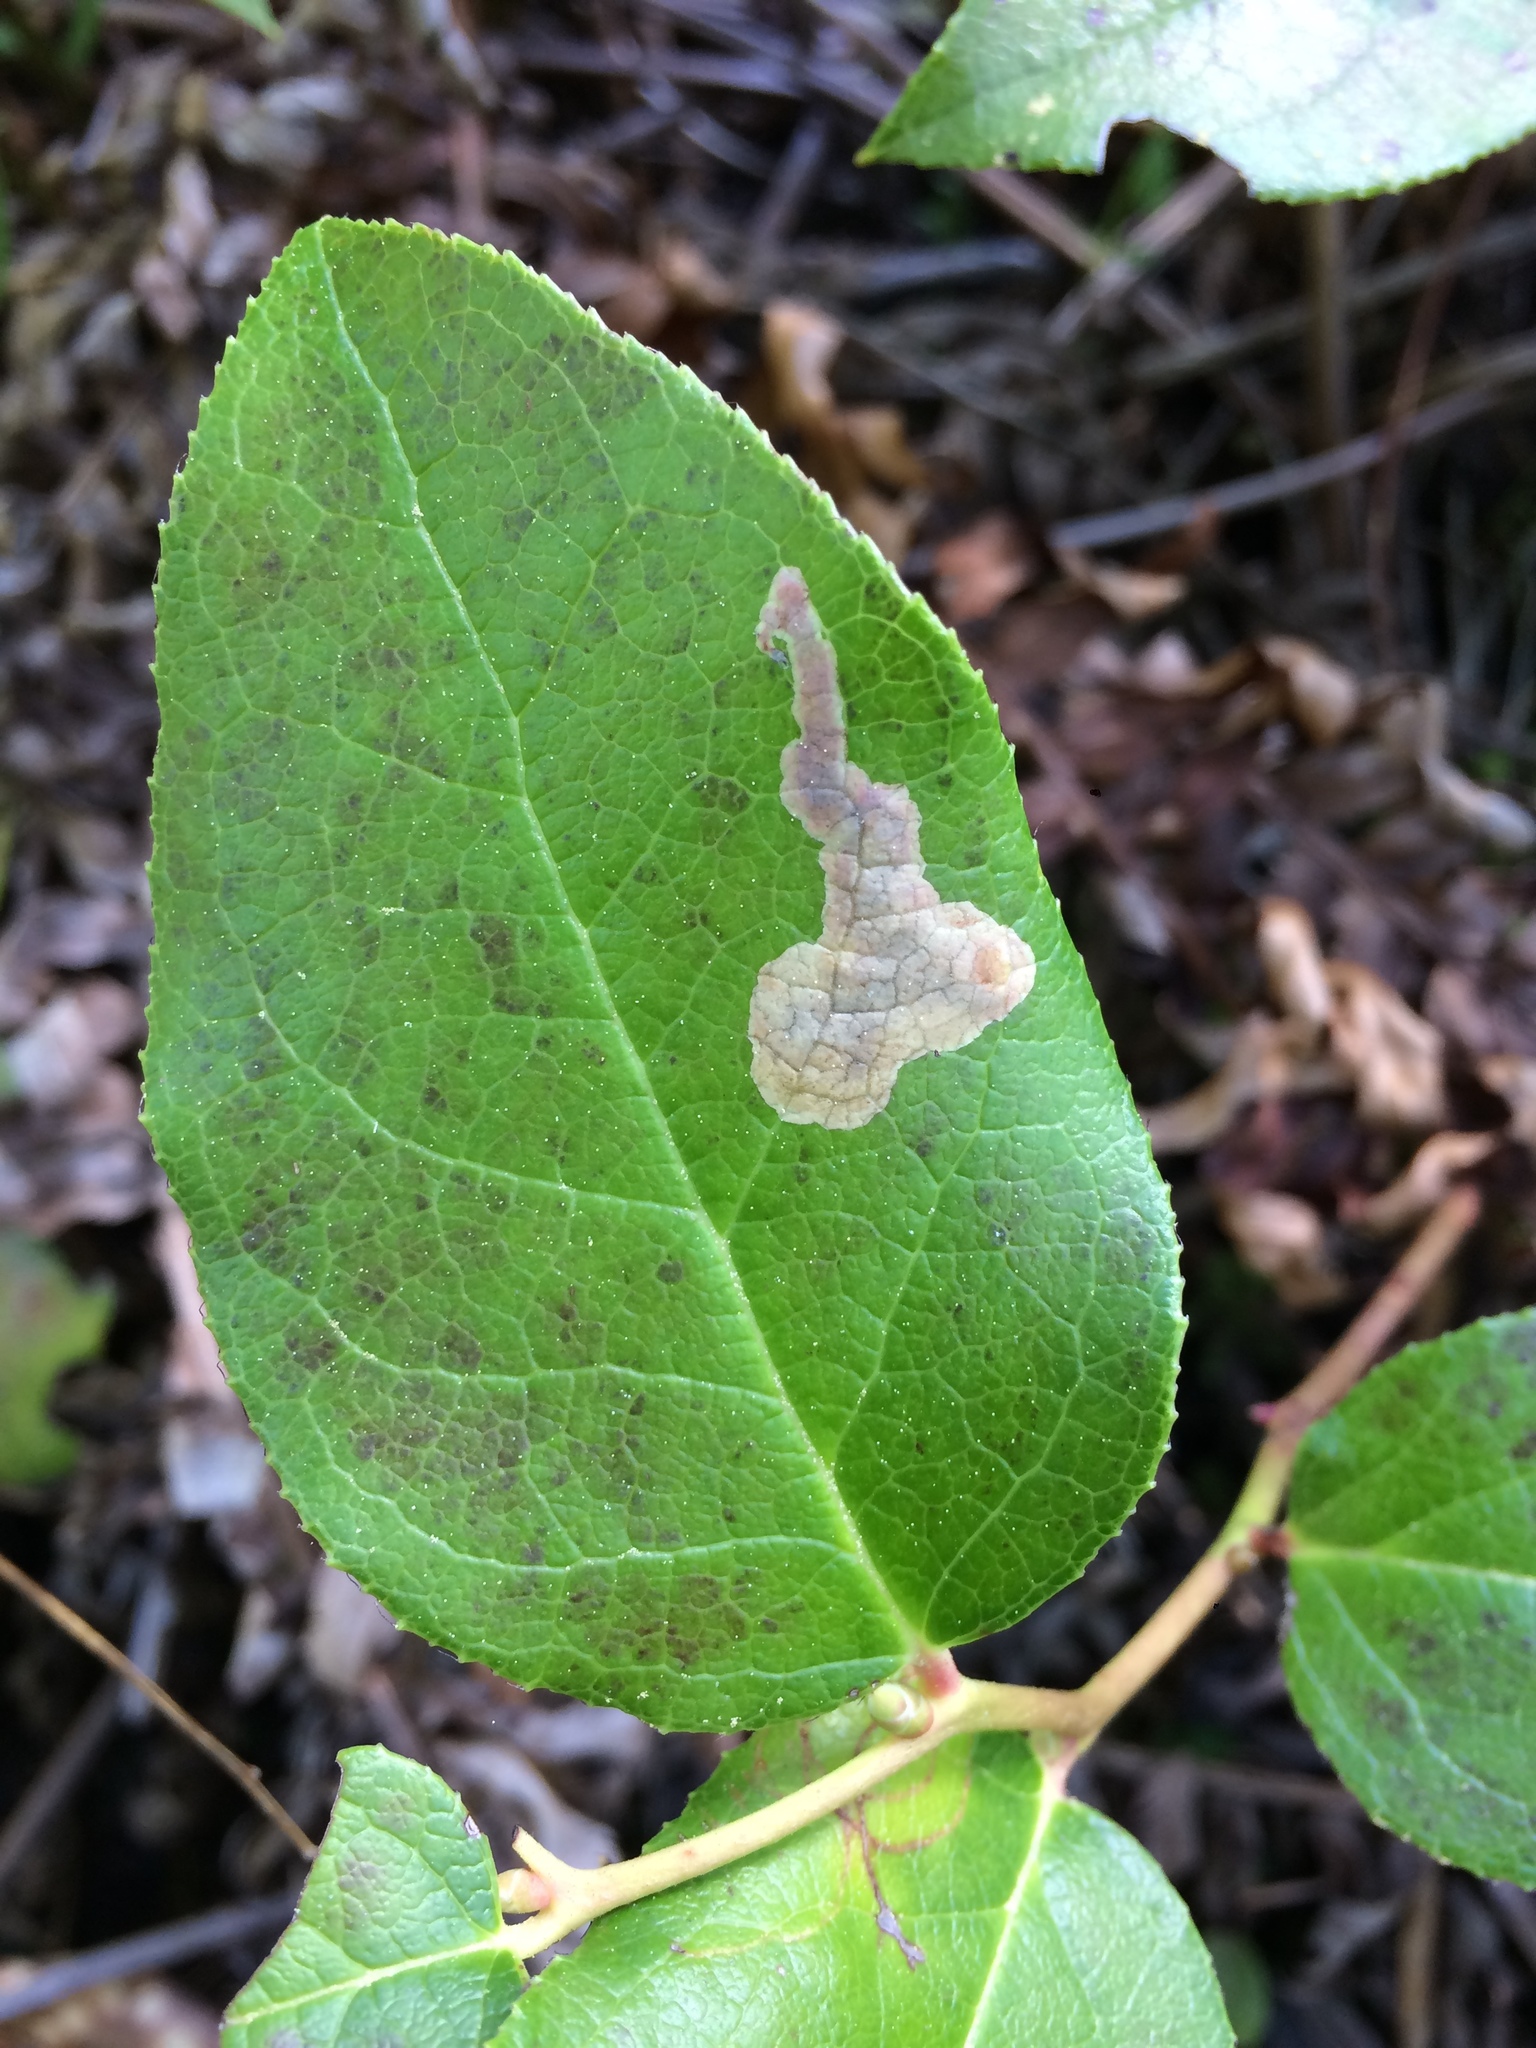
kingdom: Animalia
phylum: Arthropoda
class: Insecta
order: Lepidoptera
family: Gracillariidae
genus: Cameraria
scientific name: Cameraria gaultheriella
